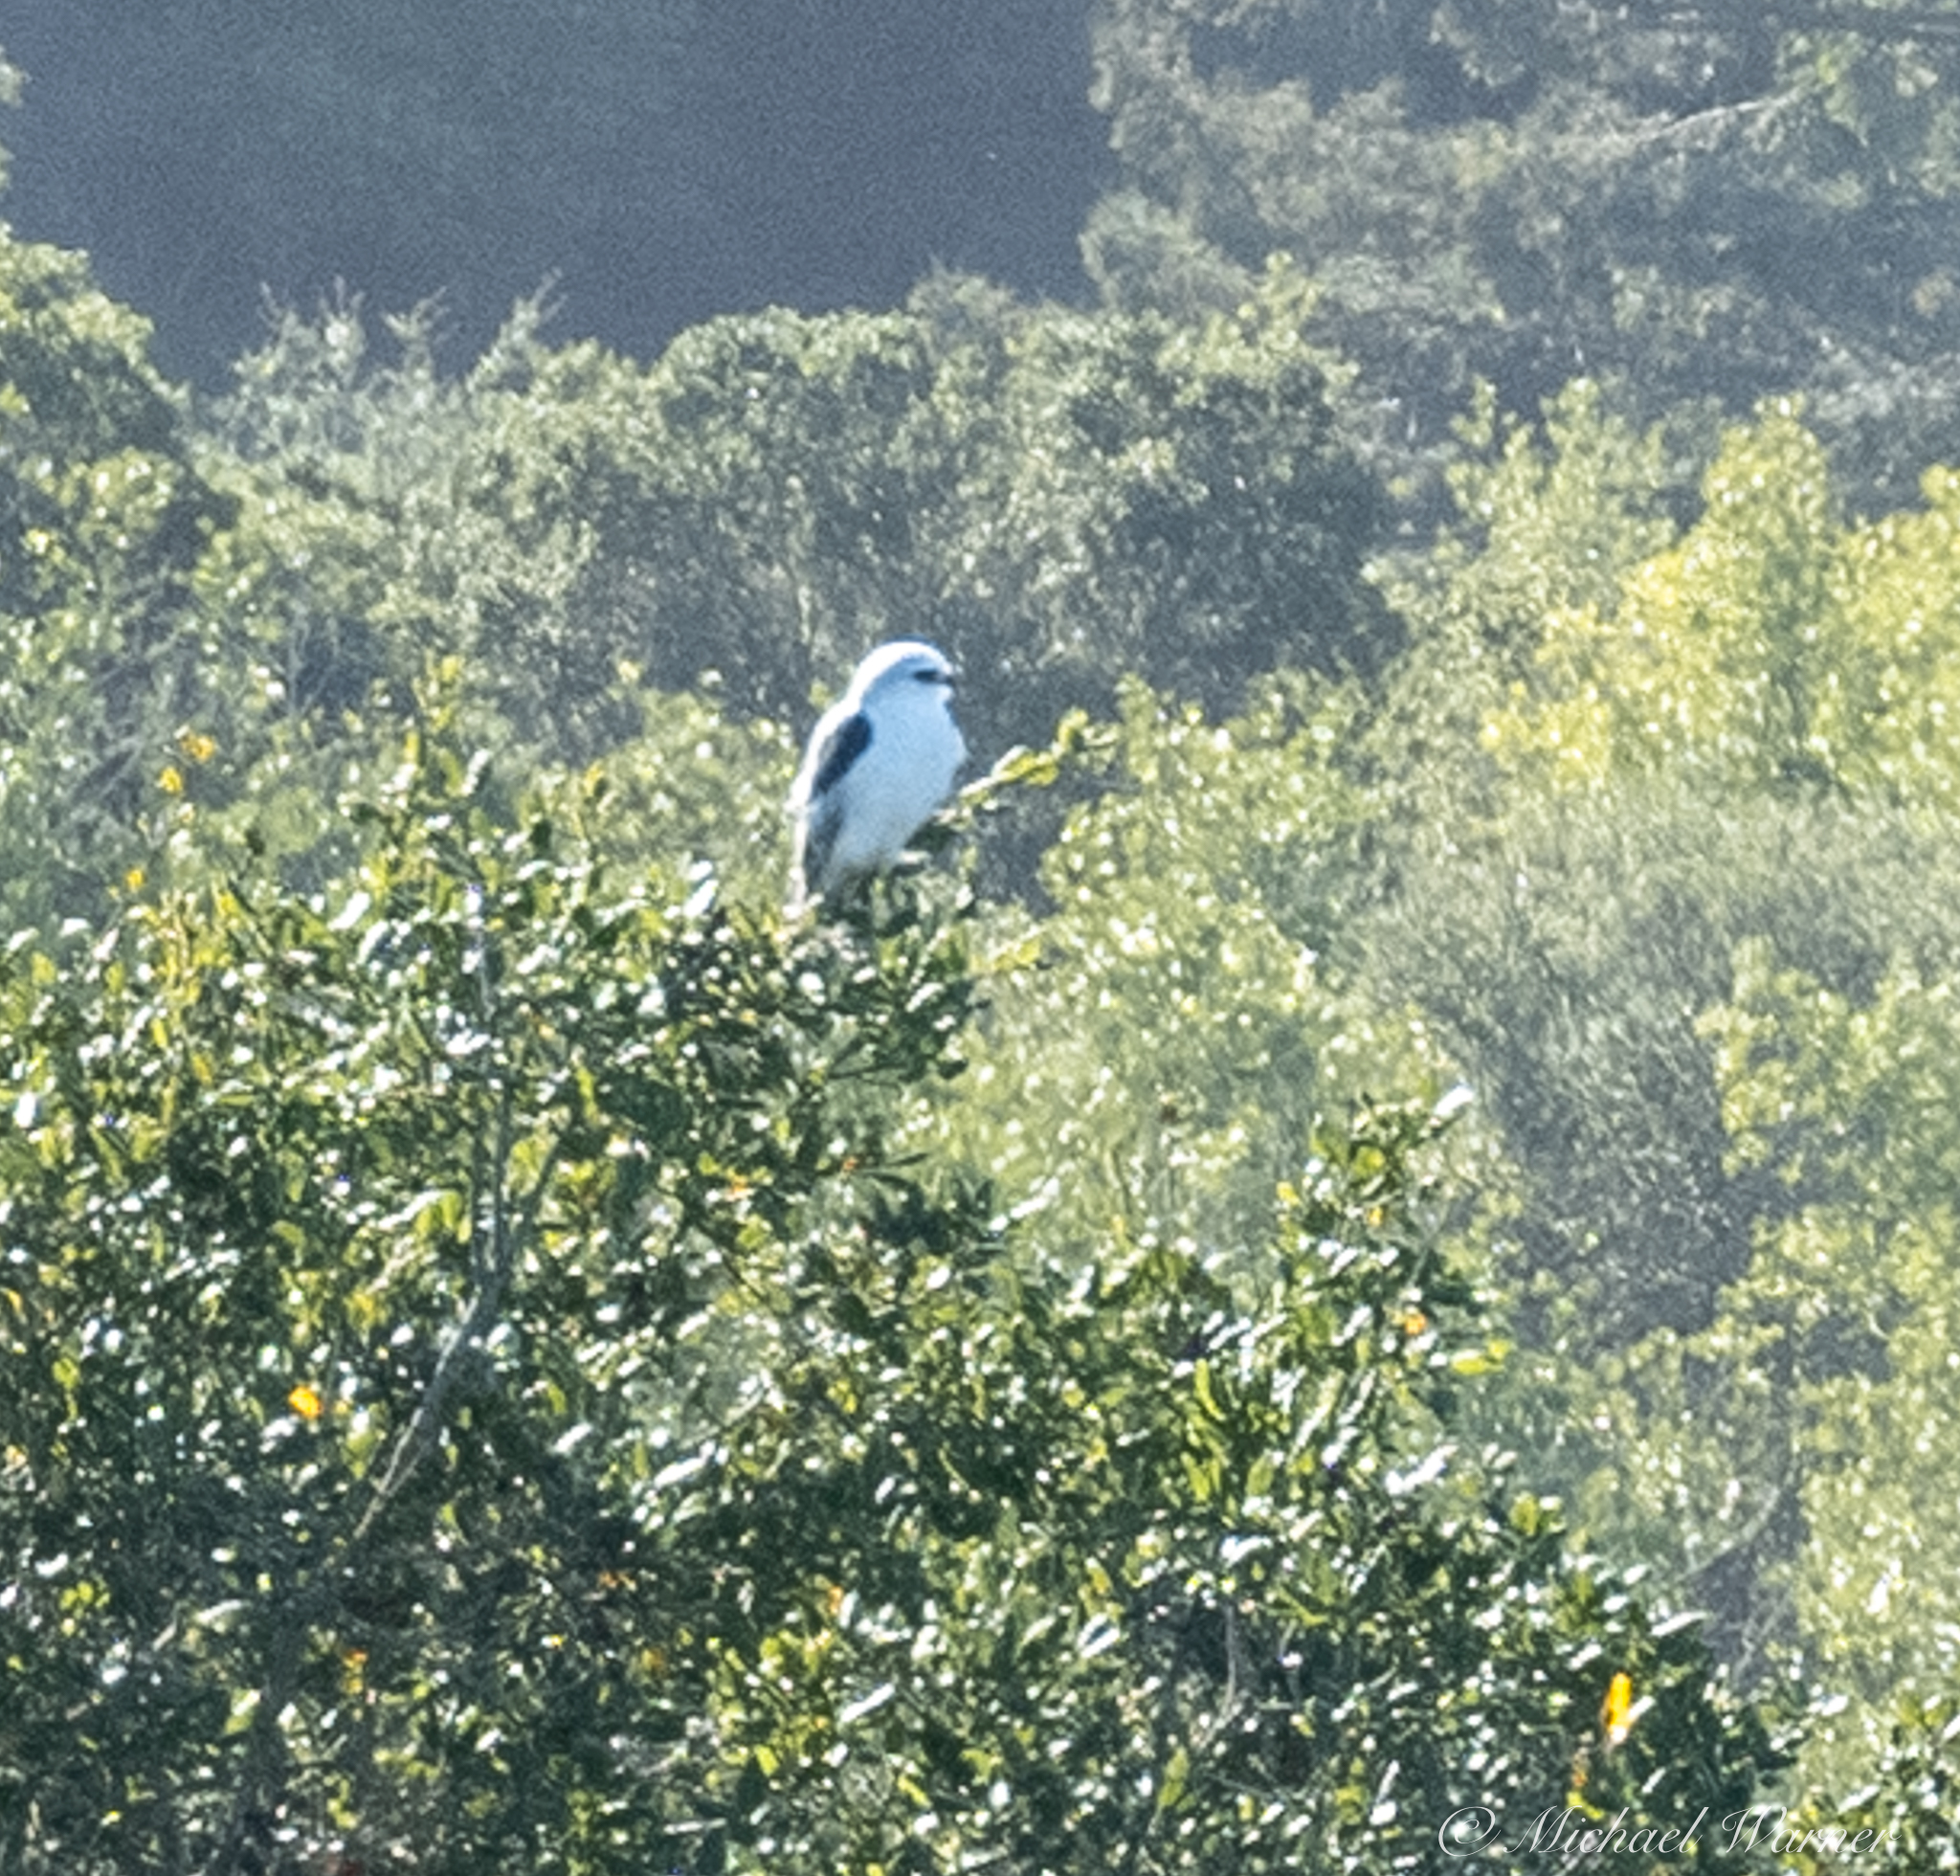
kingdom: Animalia
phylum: Chordata
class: Aves
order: Accipitriformes
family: Accipitridae
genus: Elanus
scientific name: Elanus leucurus
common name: White-tailed kite
